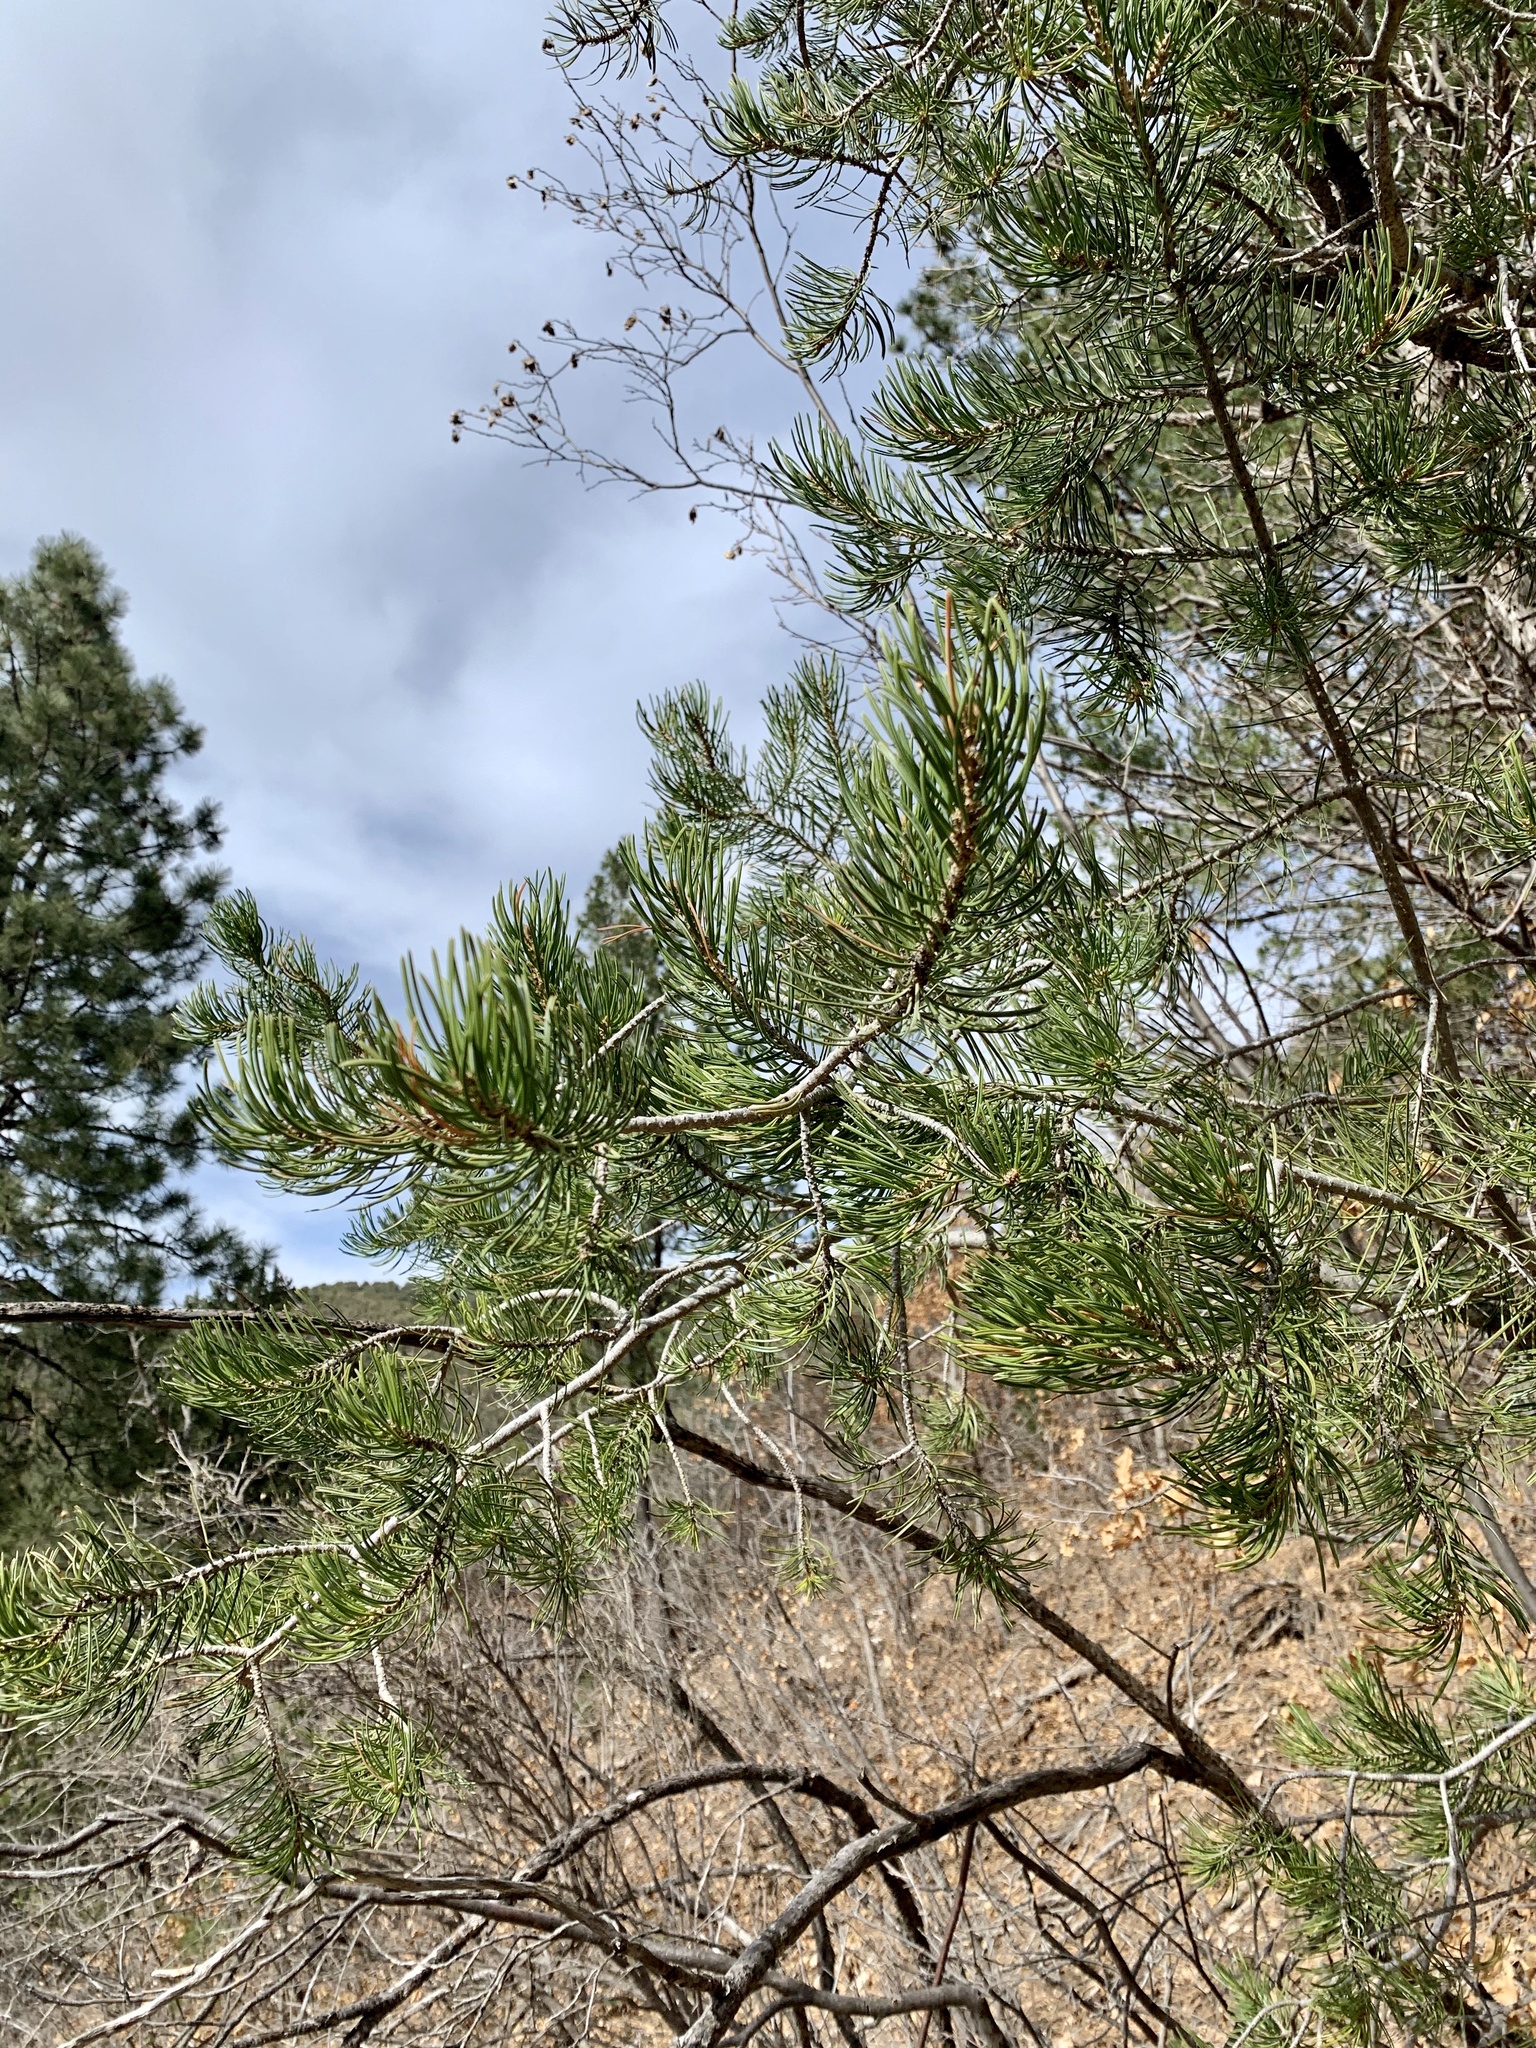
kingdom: Plantae
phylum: Tracheophyta
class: Pinopsida
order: Pinales
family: Pinaceae
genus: Pinus
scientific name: Pinus edulis
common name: Colorado pinyon
